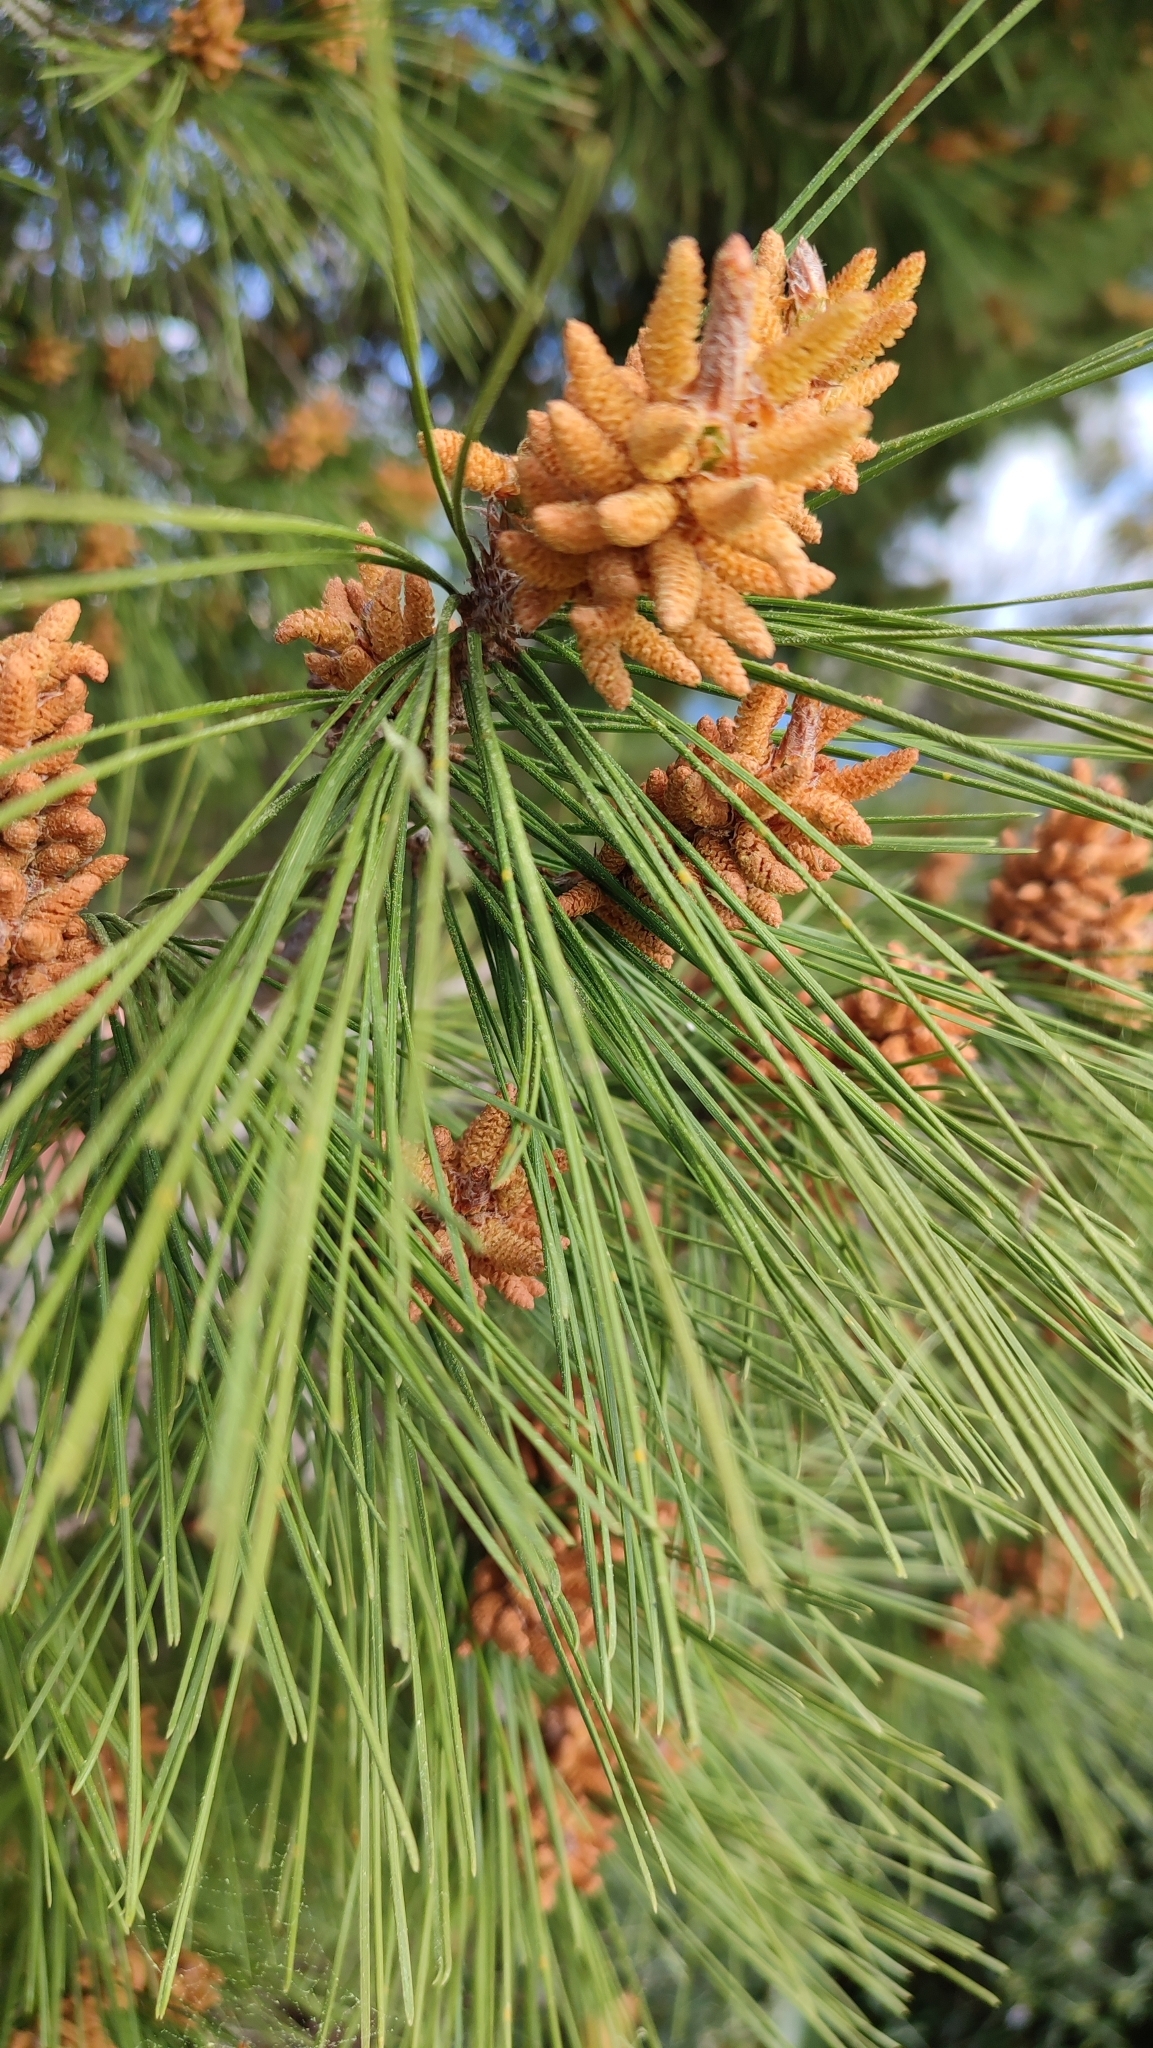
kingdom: Plantae
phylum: Tracheophyta
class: Pinopsida
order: Pinales
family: Pinaceae
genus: Pinus
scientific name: Pinus halepensis
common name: Aleppo pine
